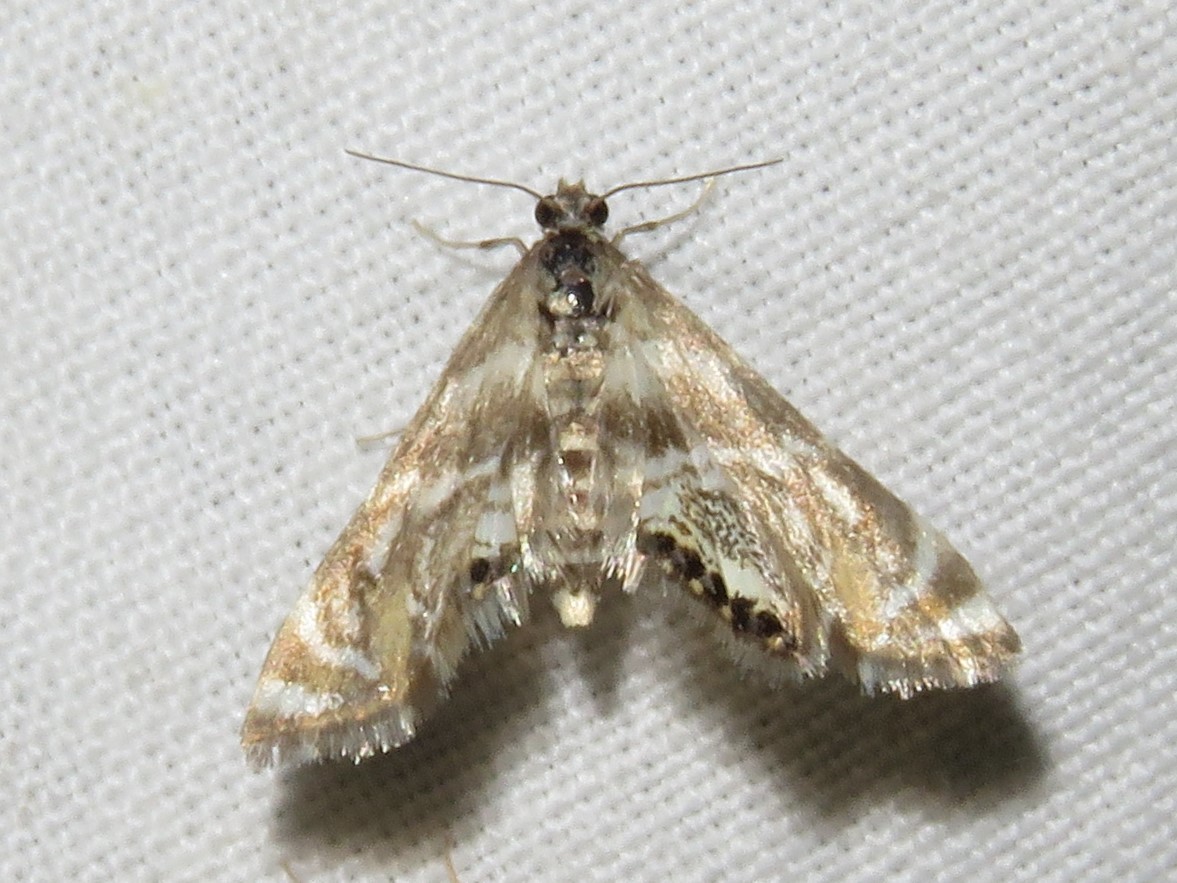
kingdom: Animalia
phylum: Arthropoda
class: Insecta
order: Lepidoptera
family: Crambidae
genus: Petrophila
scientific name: Petrophila canadensis
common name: Canadian petrophila
